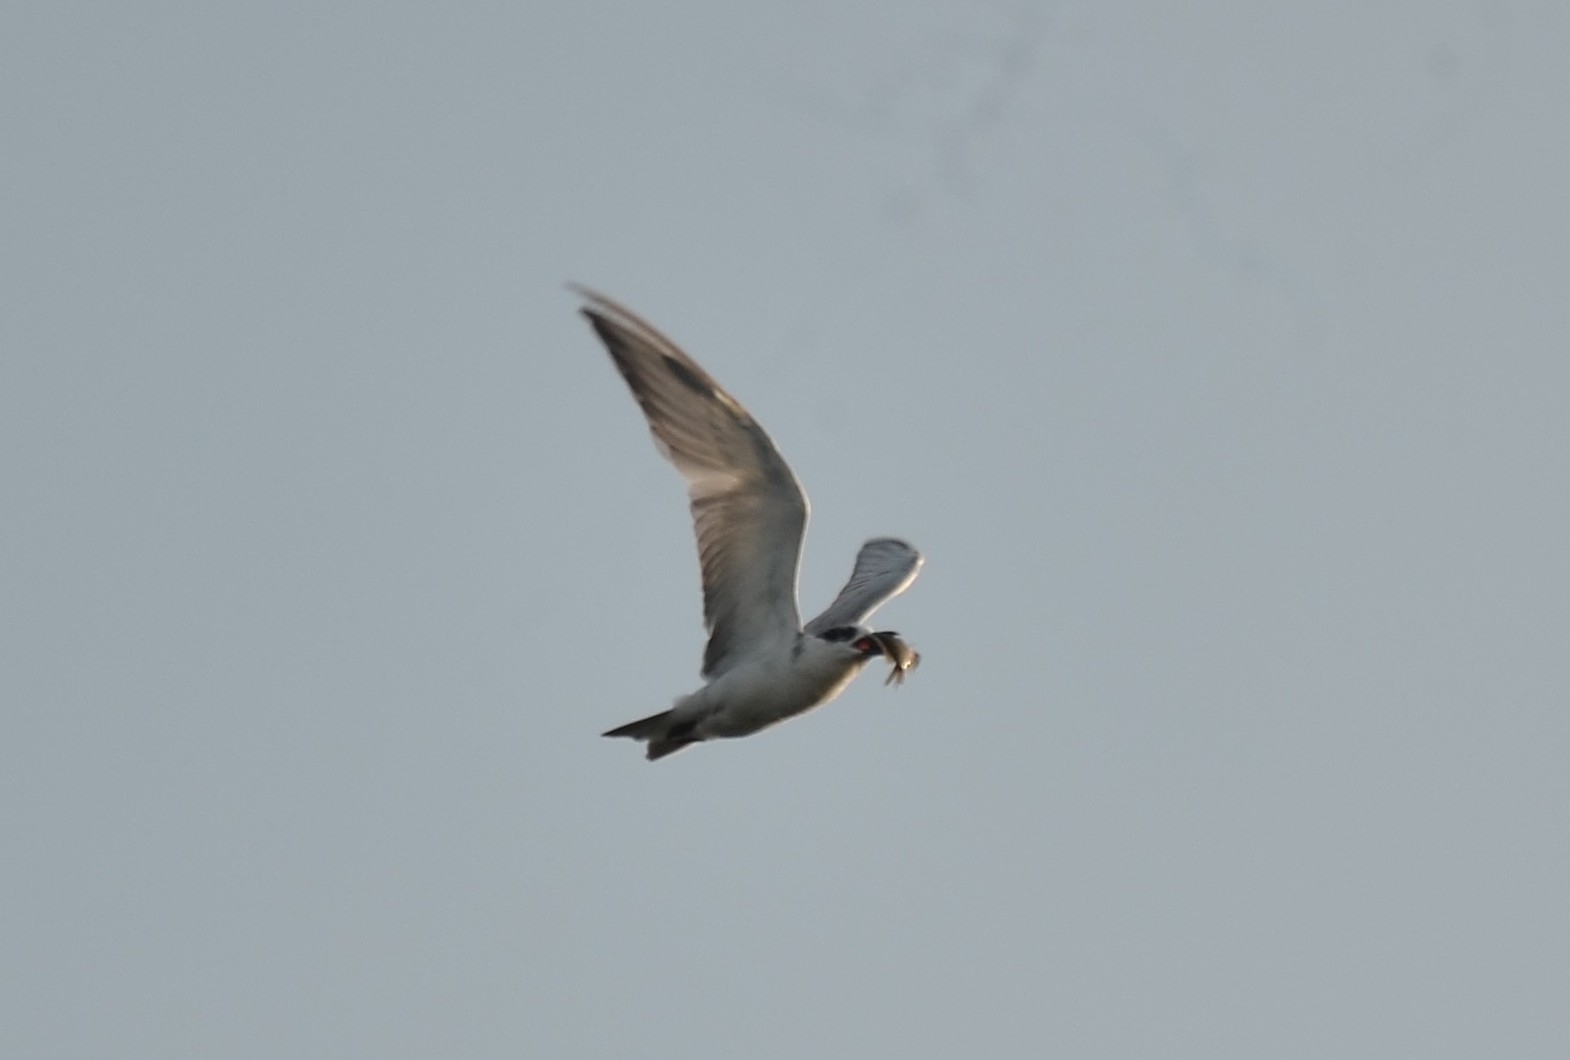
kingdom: Animalia
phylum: Chordata
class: Aves
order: Charadriiformes
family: Laridae
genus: Chlidonias
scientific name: Chlidonias hybrida
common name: Whiskered tern
